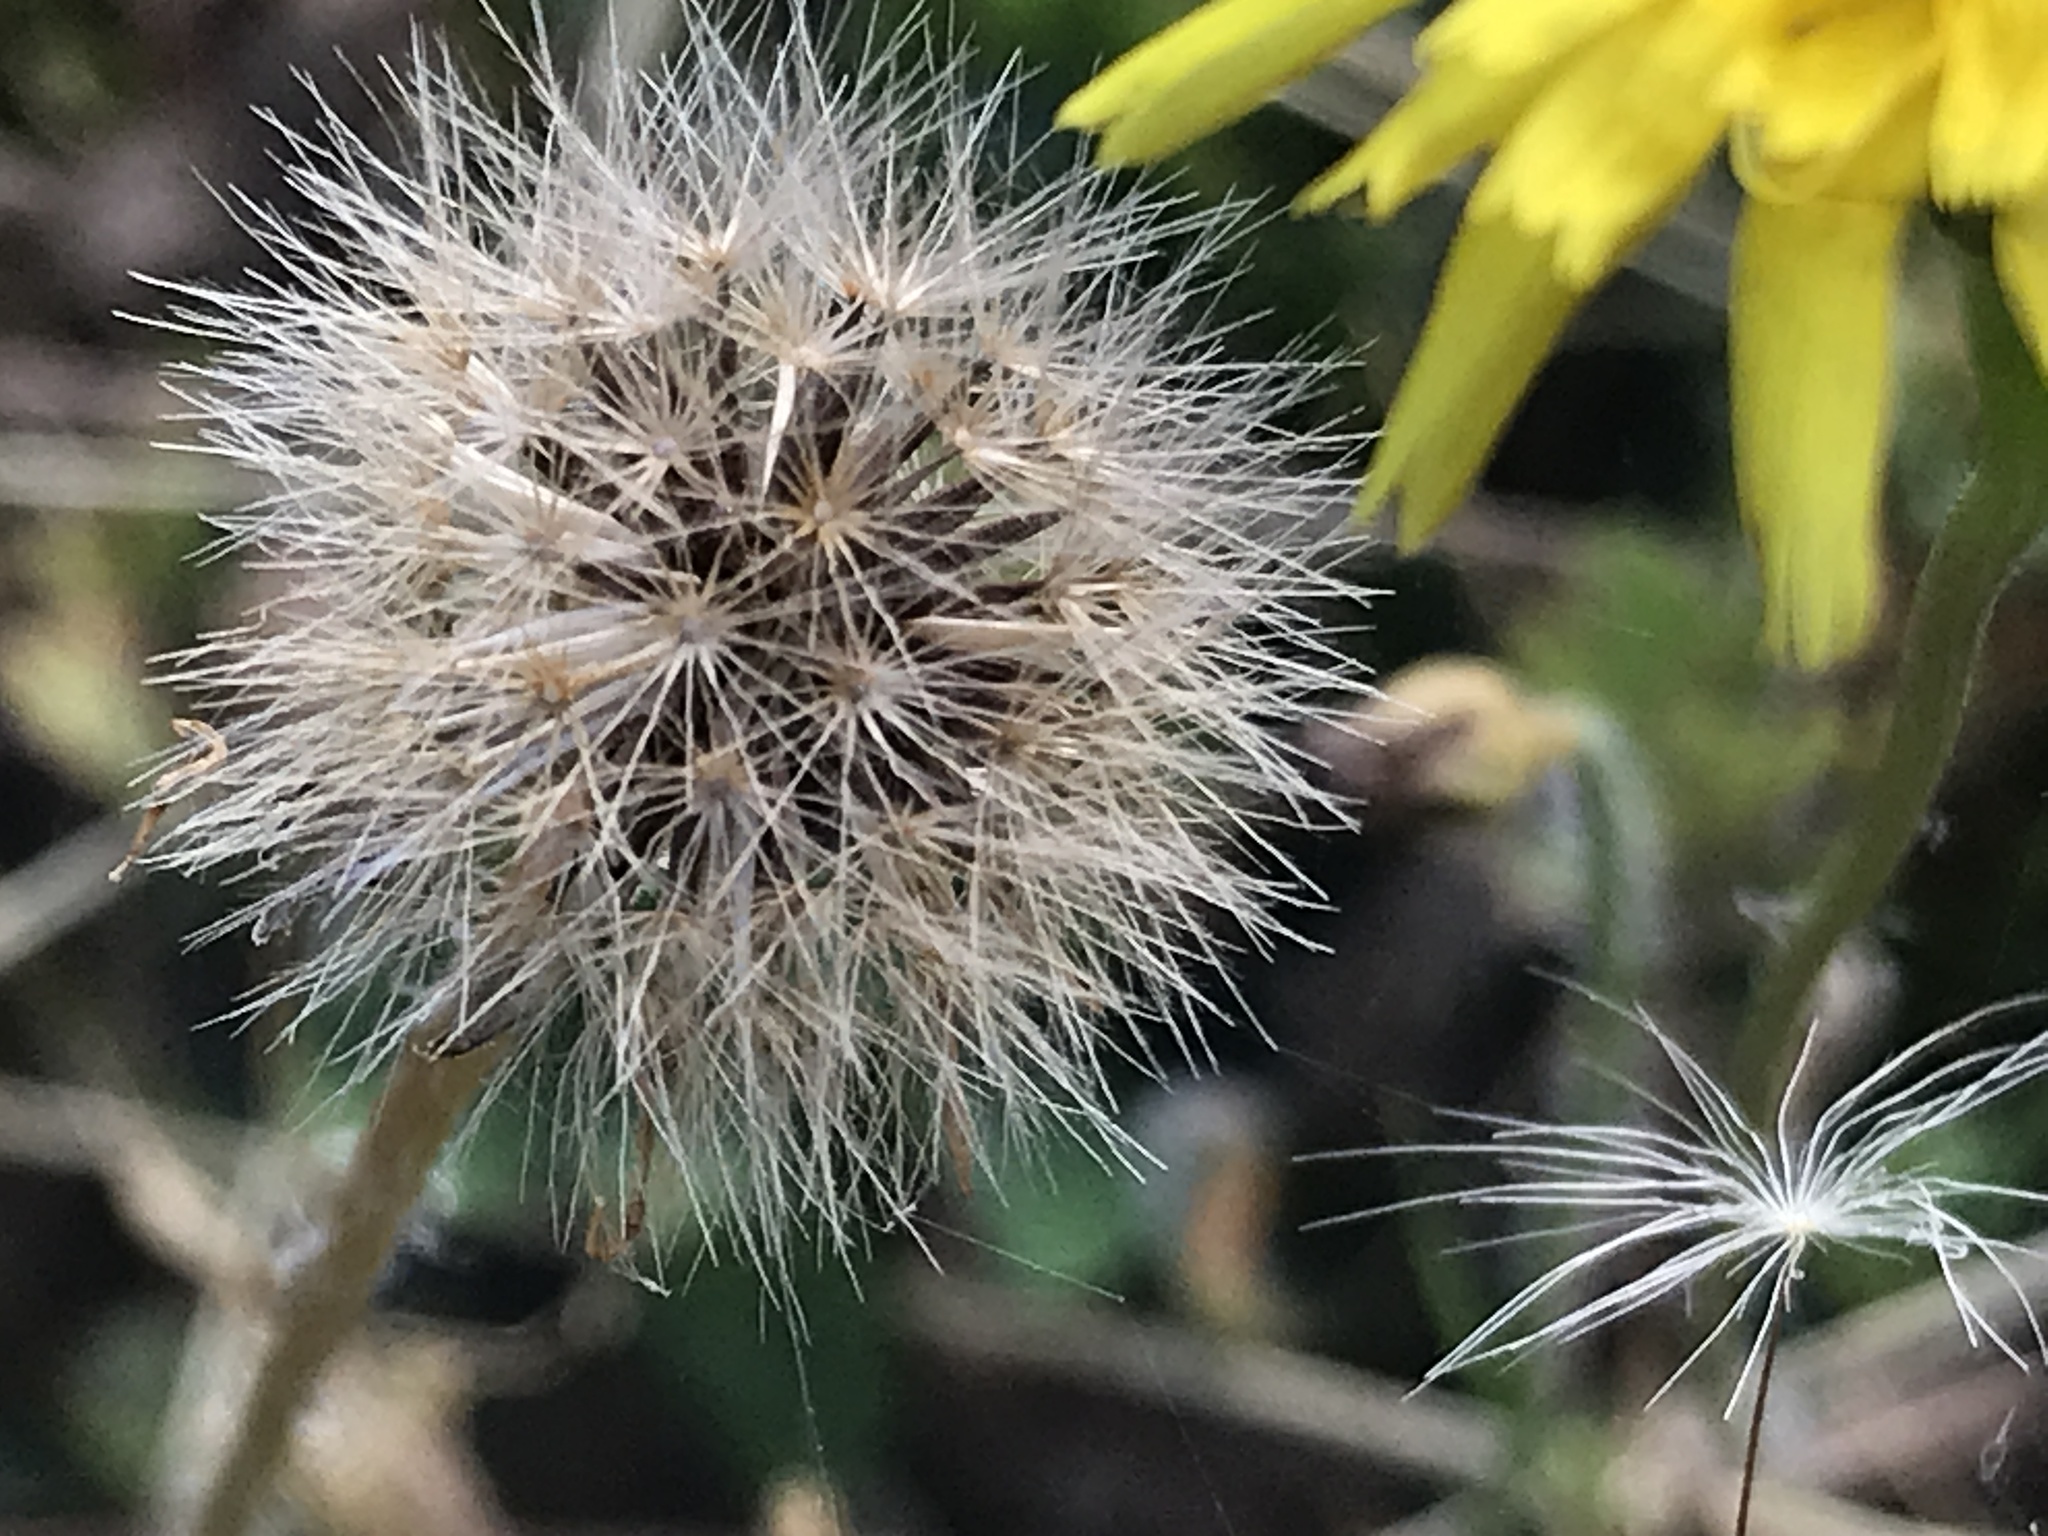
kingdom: Plantae
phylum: Tracheophyta
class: Magnoliopsida
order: Asterales
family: Asteraceae
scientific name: Asteraceae
